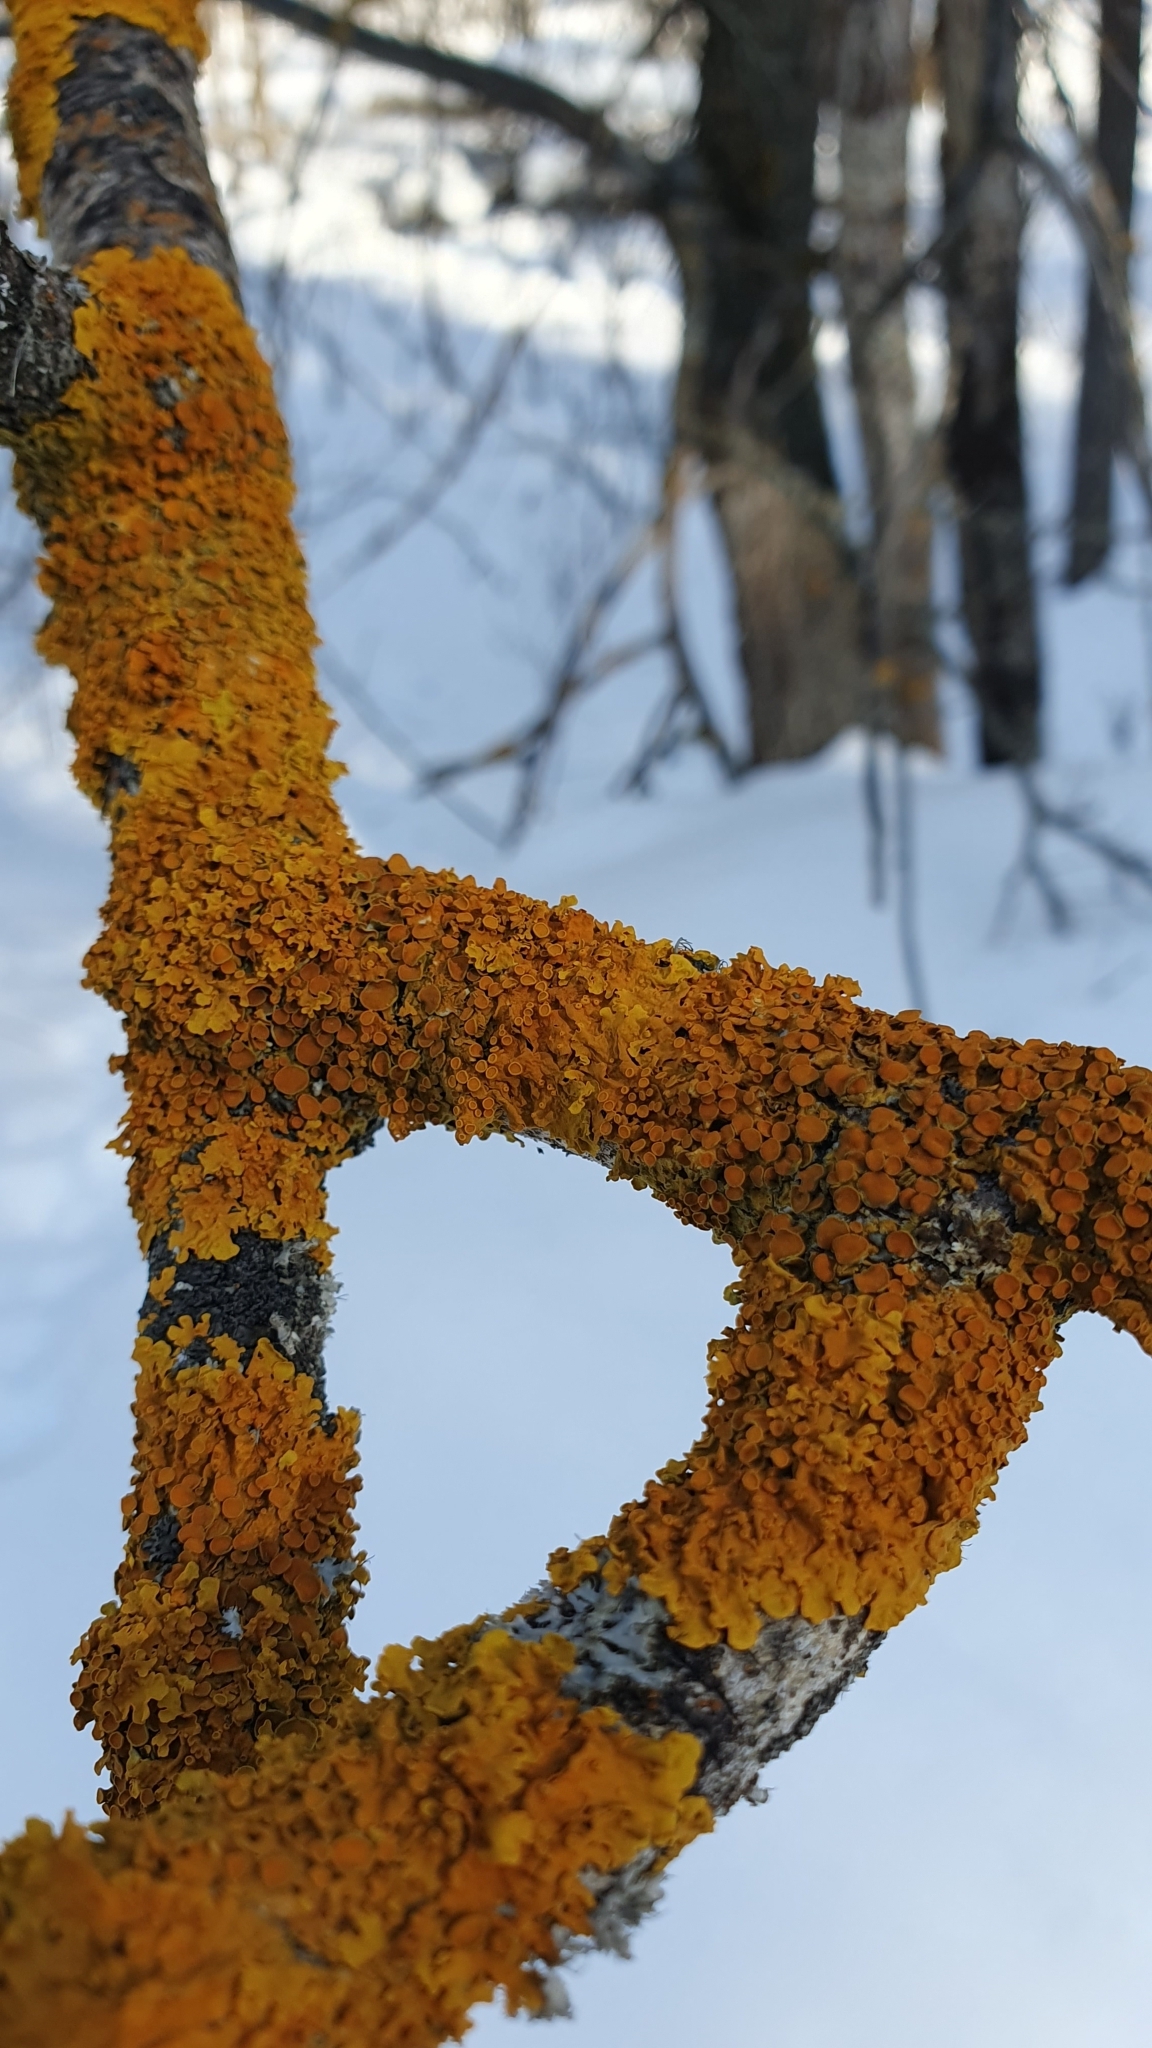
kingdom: Fungi
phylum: Ascomycota
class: Lecanoromycetes
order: Teloschistales
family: Teloschistaceae
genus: Xanthoria
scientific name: Xanthoria parietina
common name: Common orange lichen
